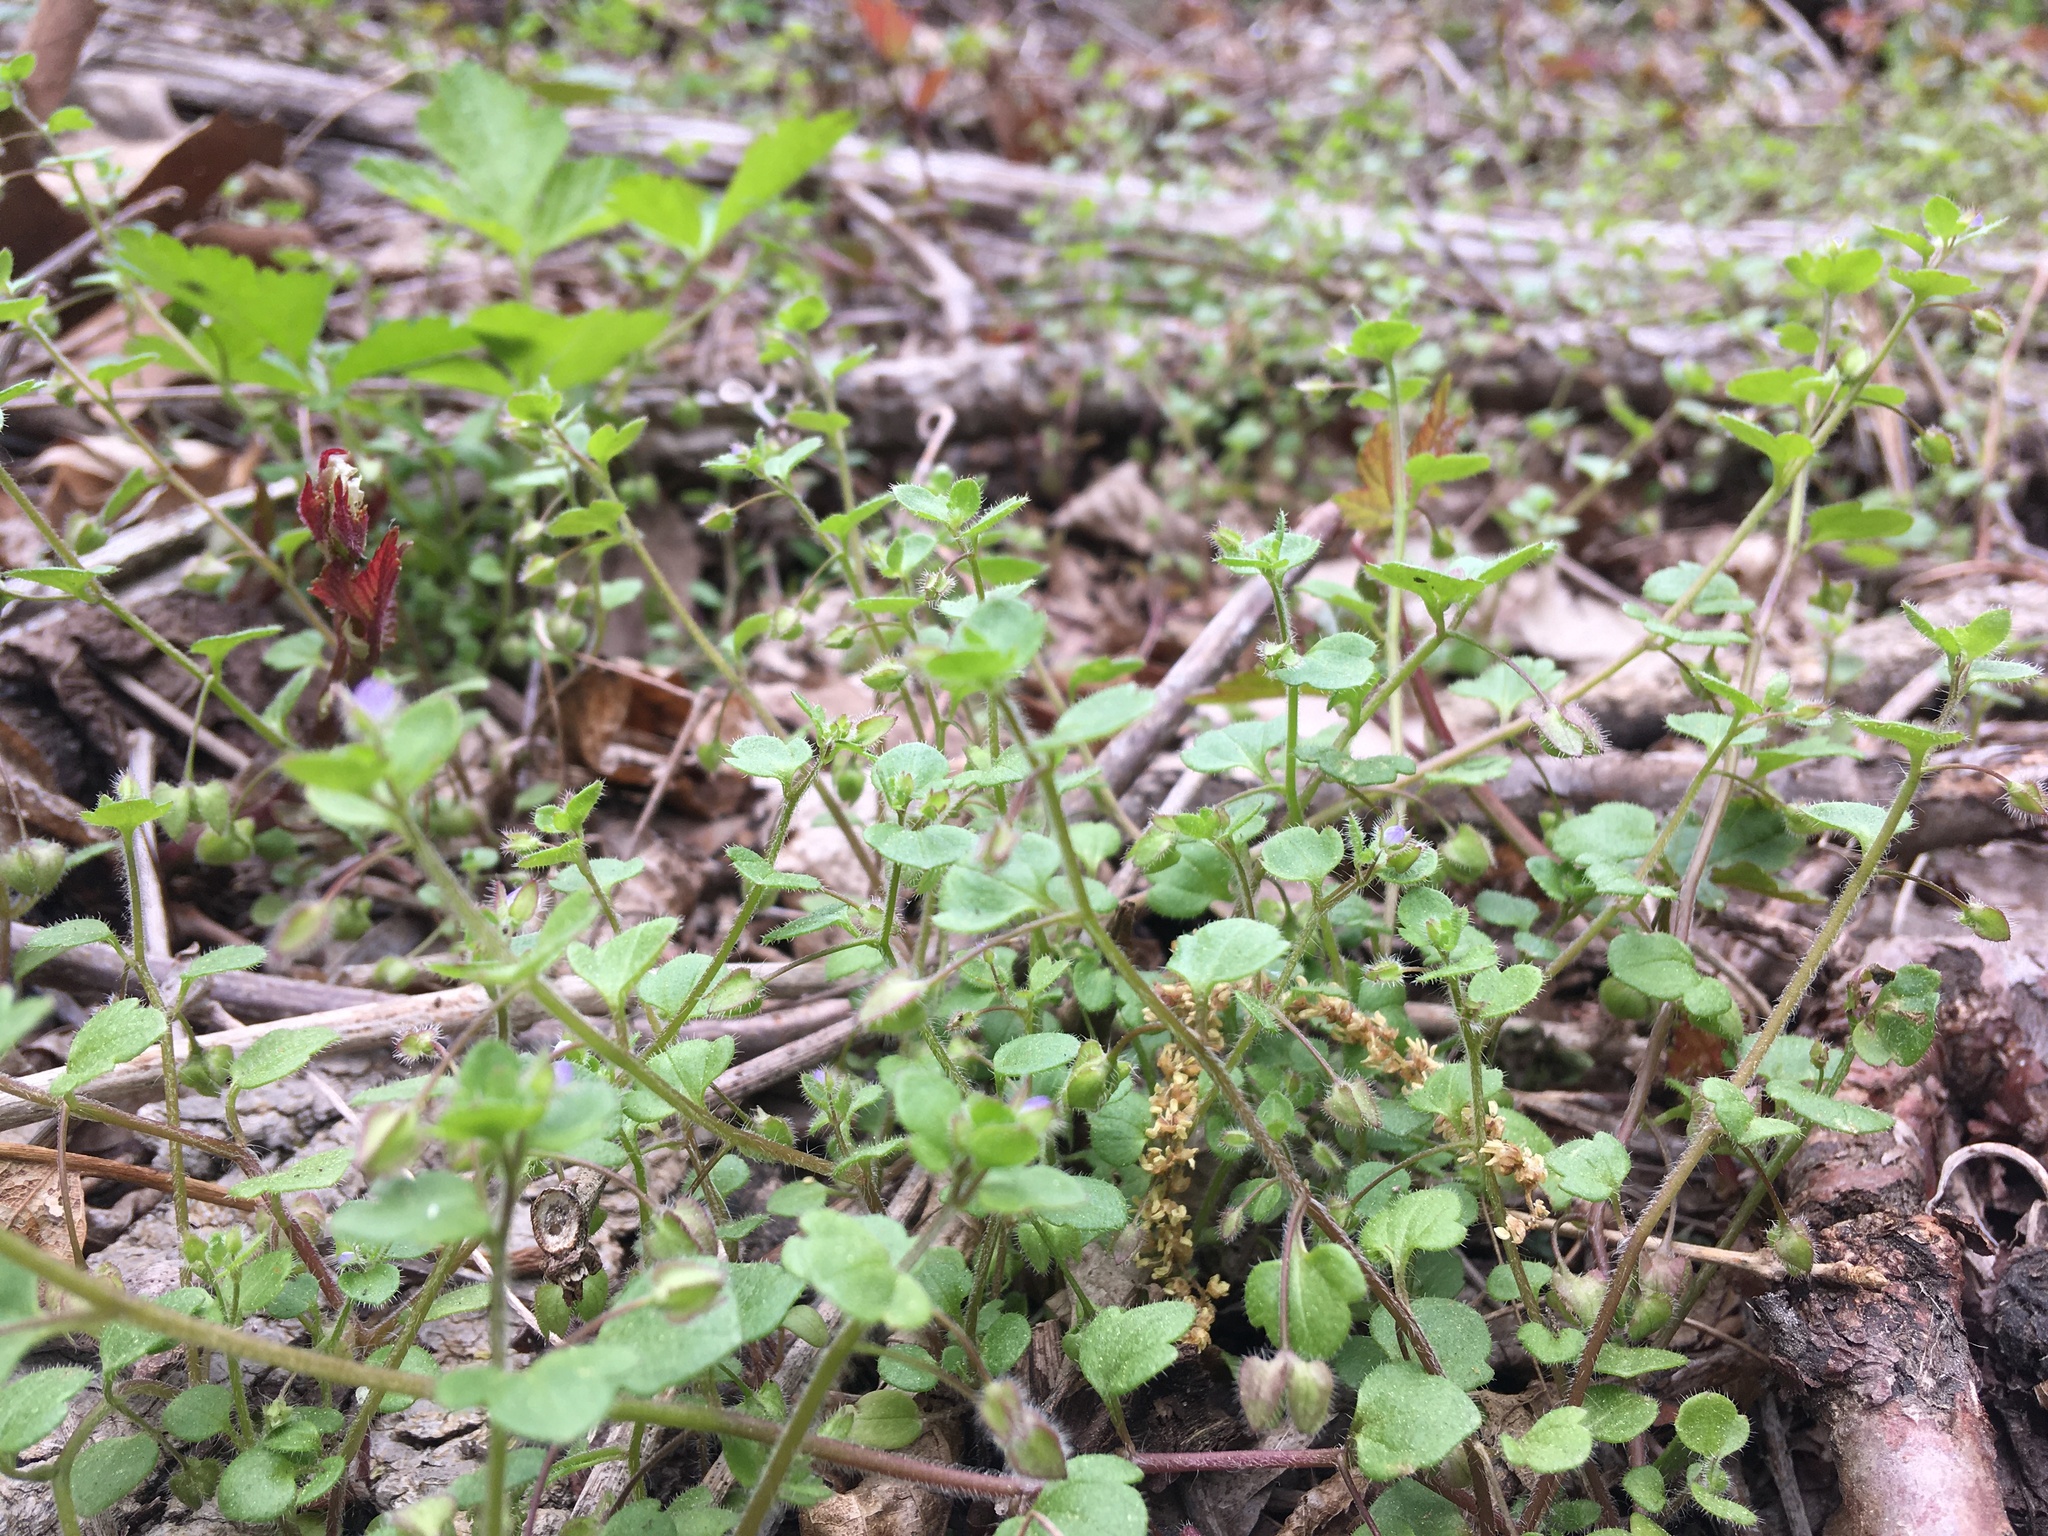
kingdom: Plantae
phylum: Tracheophyta
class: Magnoliopsida
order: Lamiales
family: Plantaginaceae
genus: Veronica
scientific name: Veronica hederifolia
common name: Ivy-leaved speedwell
